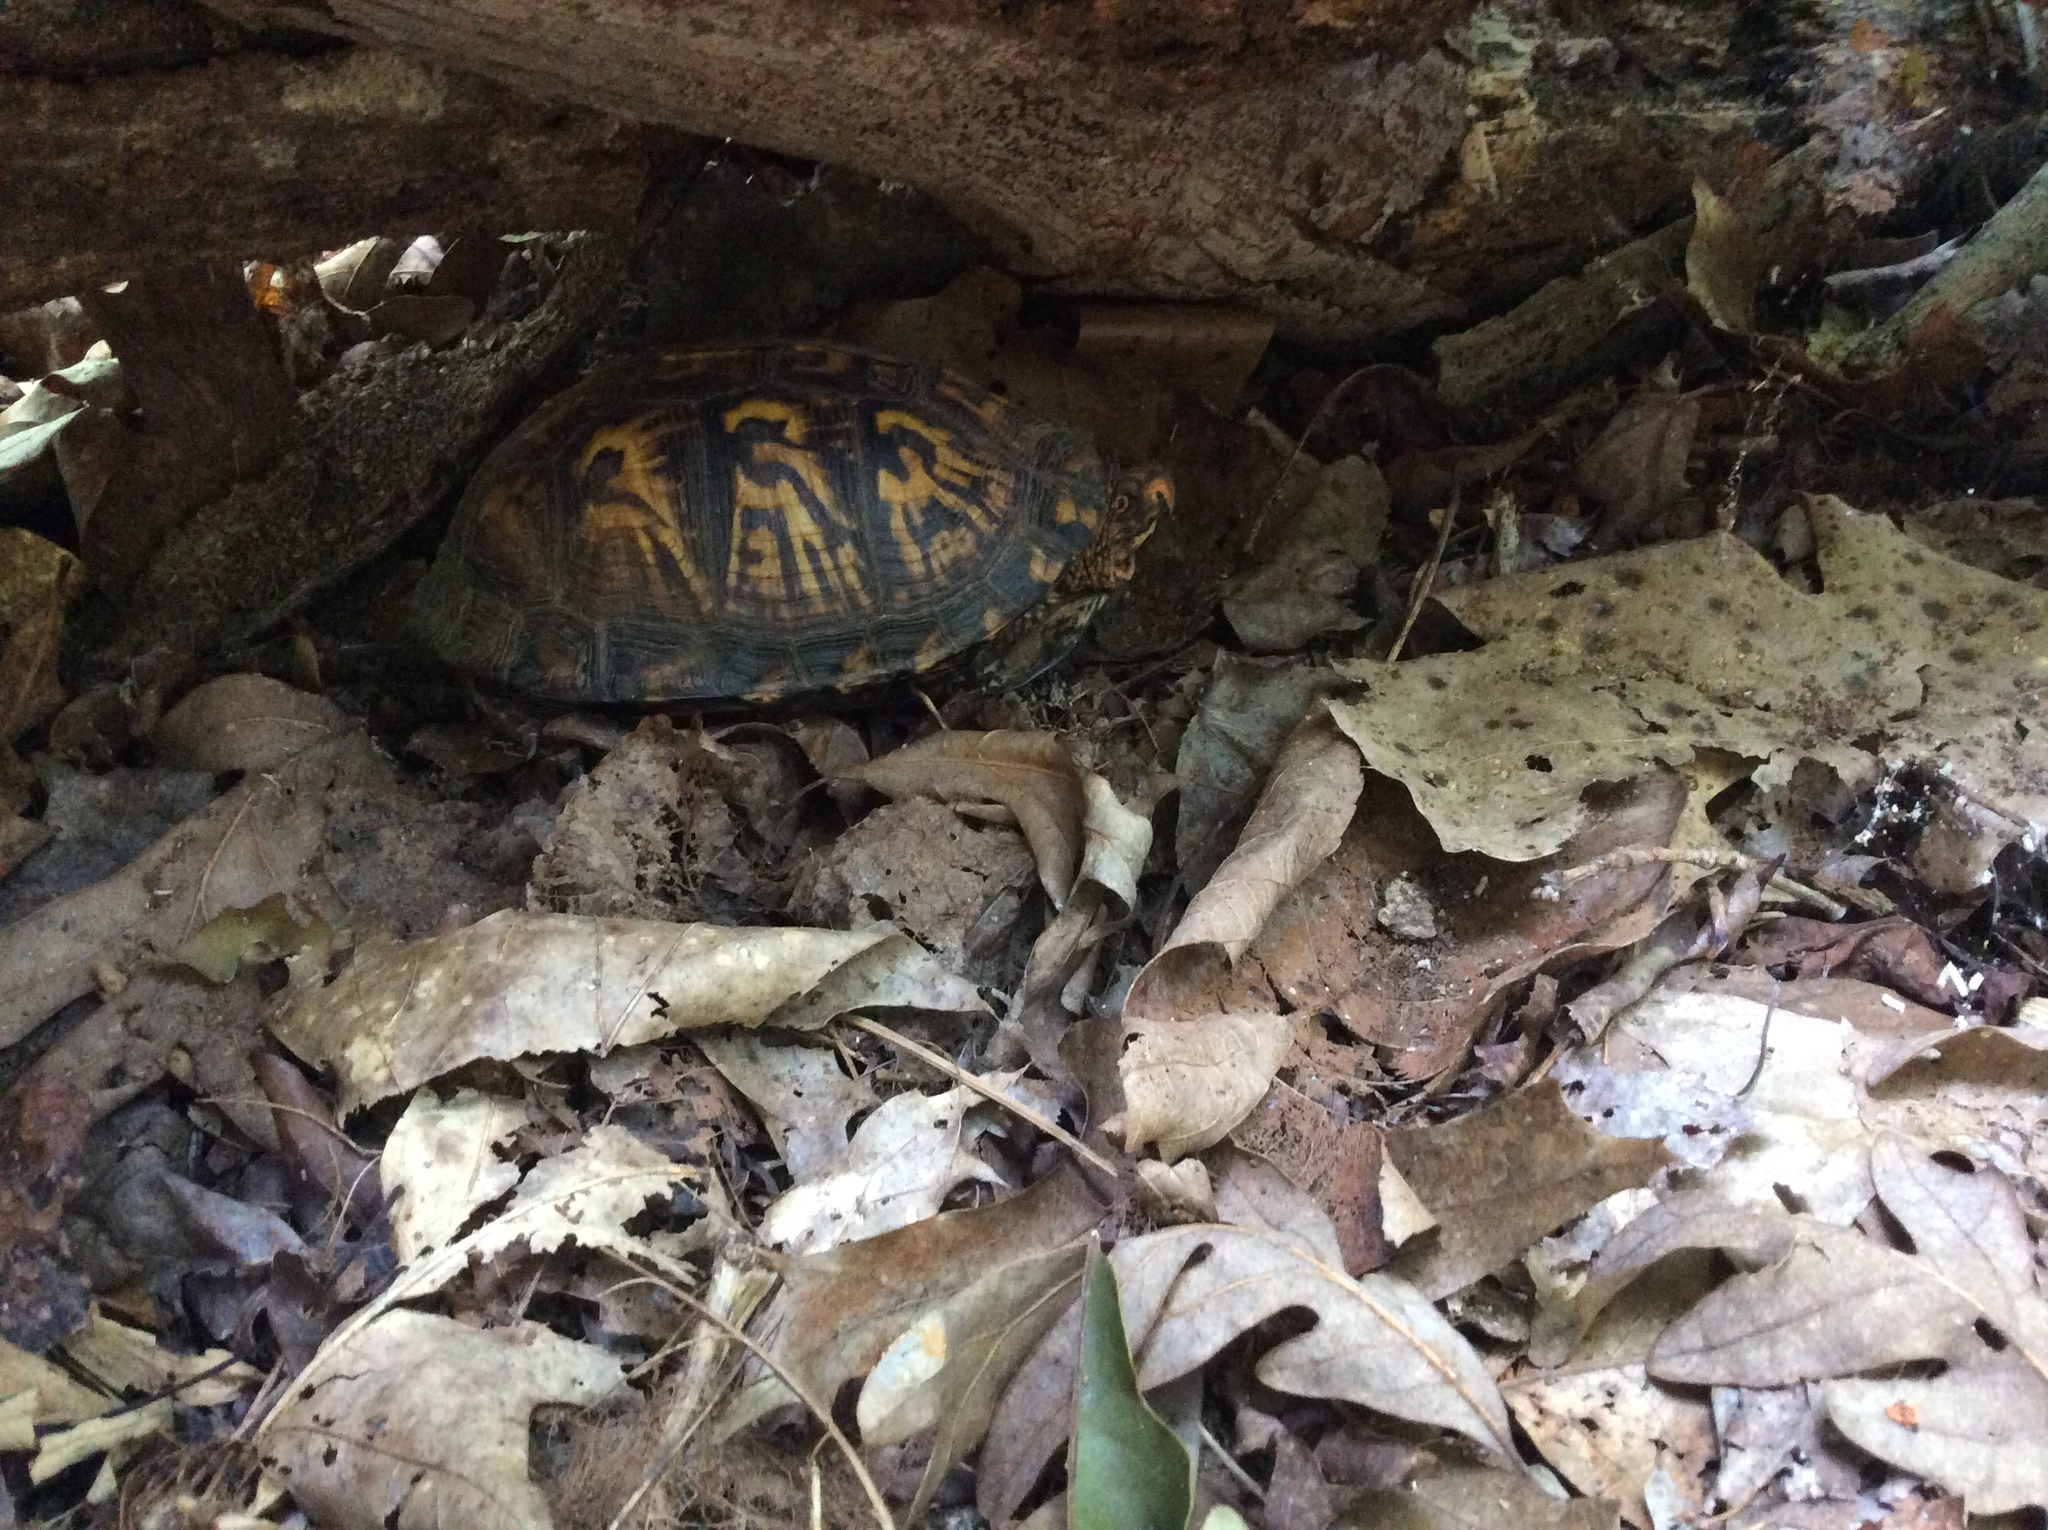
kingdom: Animalia
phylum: Chordata
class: Testudines
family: Emydidae
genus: Terrapene
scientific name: Terrapene carolina
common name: Common box turtle
